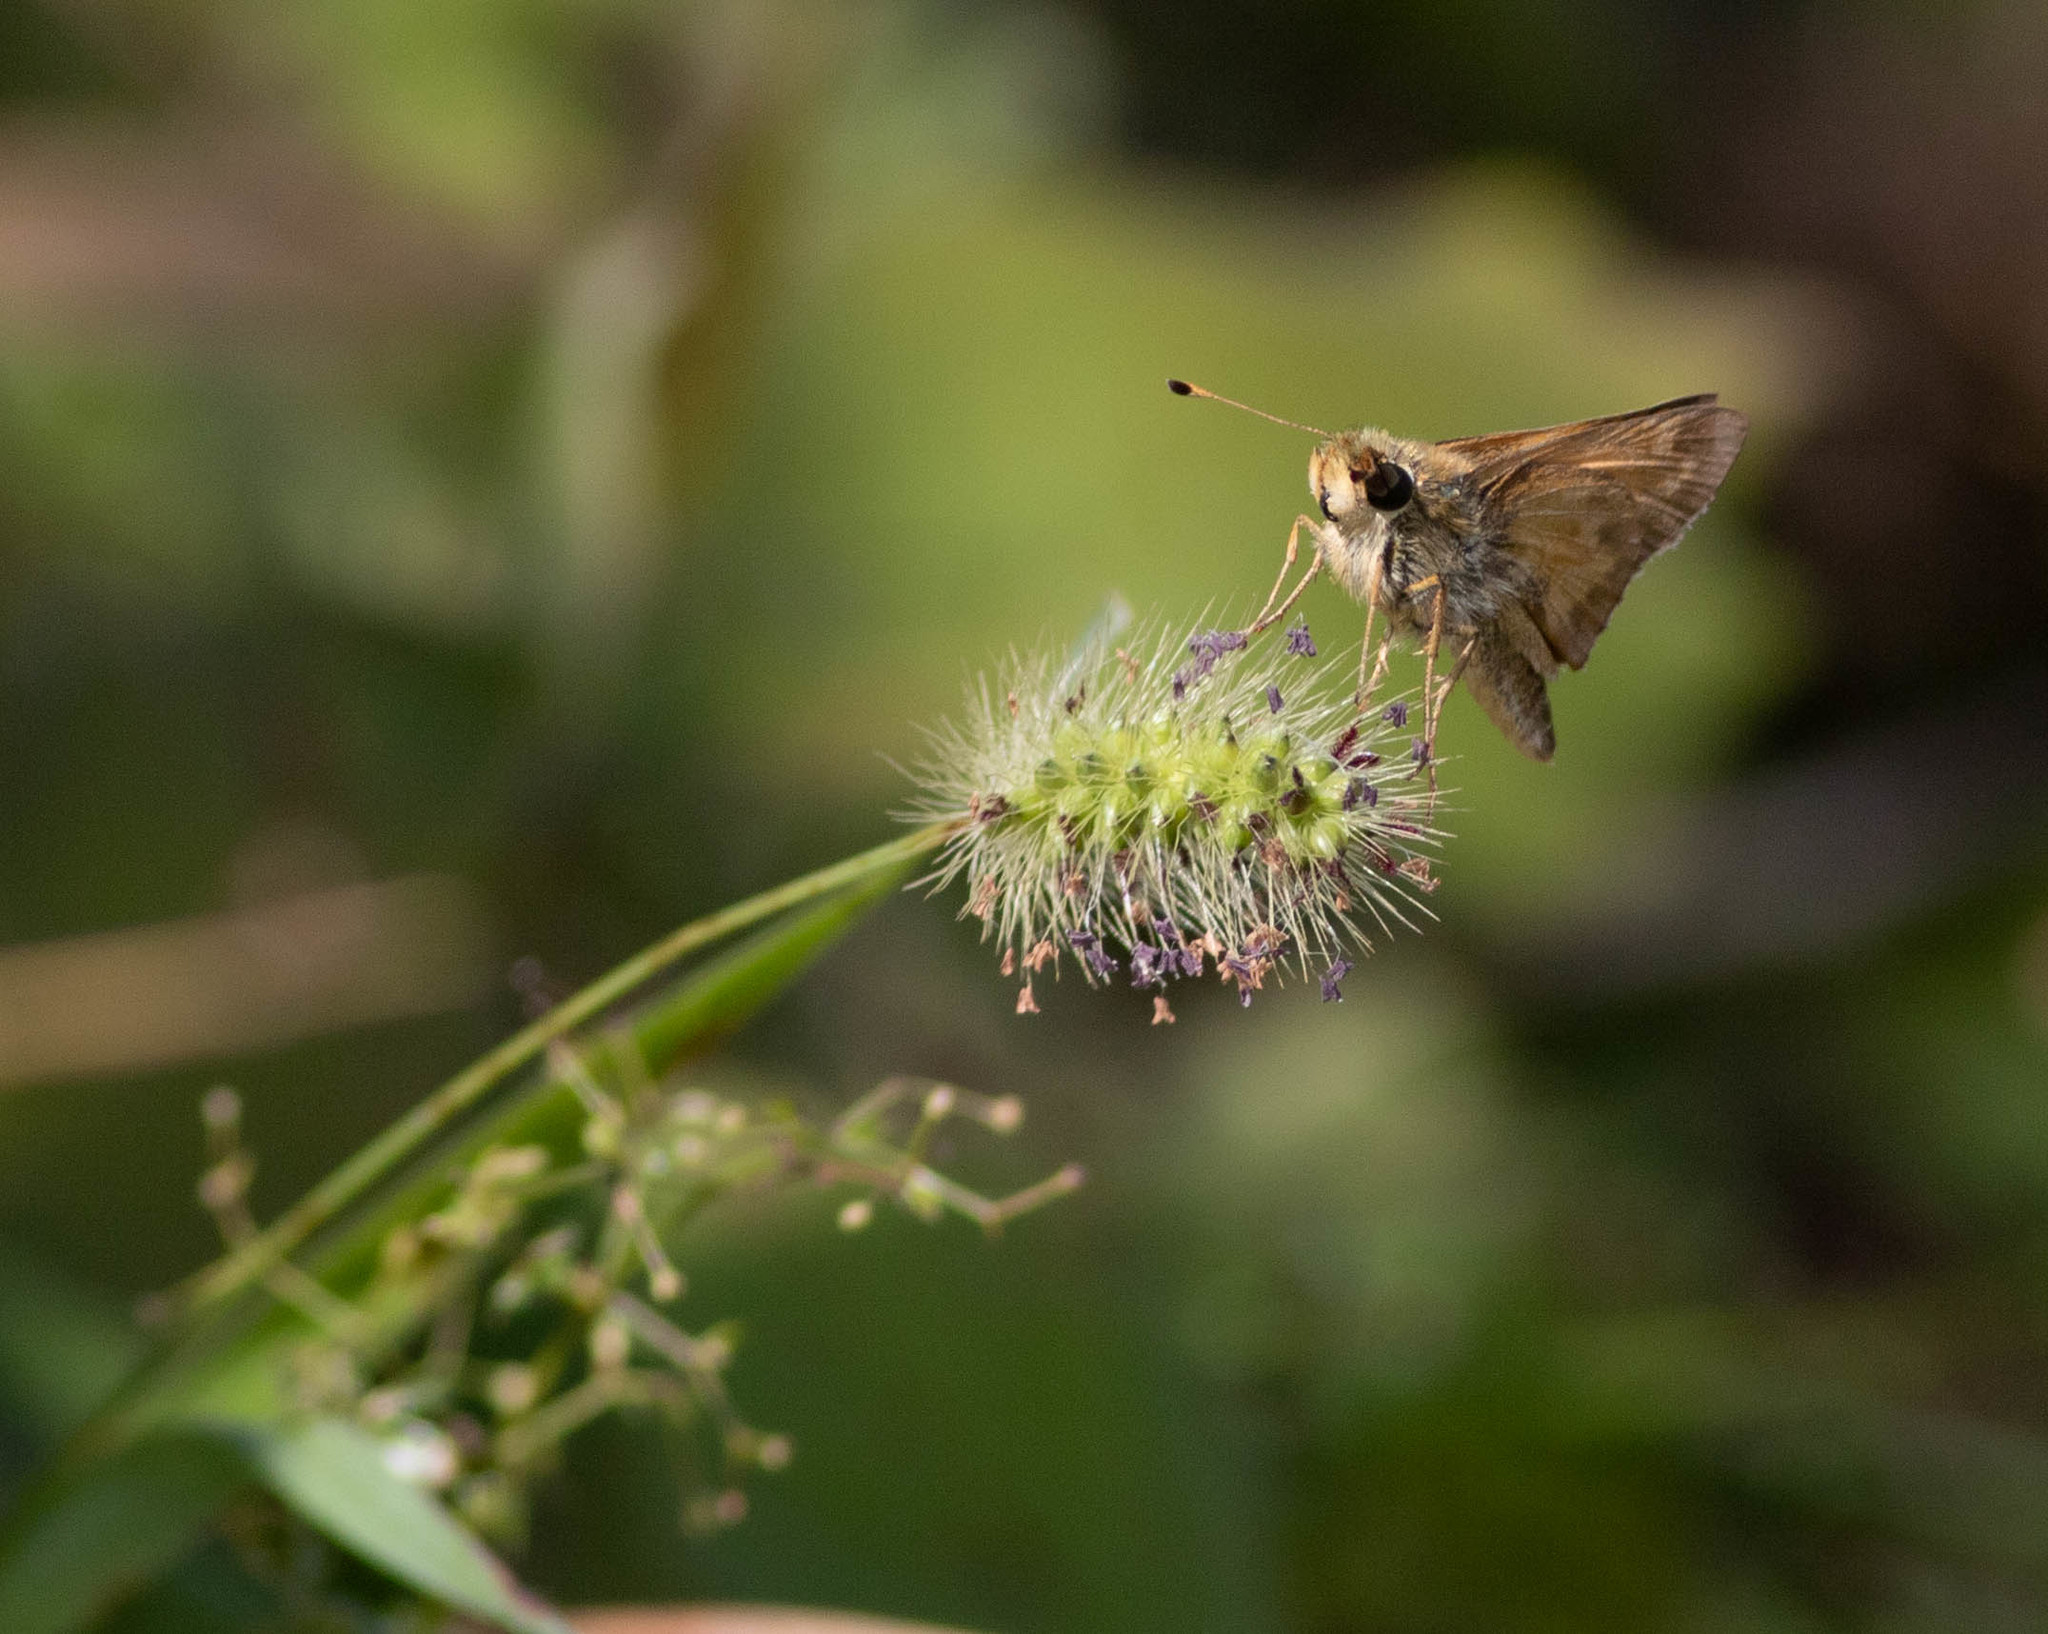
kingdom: Animalia
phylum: Arthropoda
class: Insecta
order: Lepidoptera
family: Hesperiidae
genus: Atalopedes
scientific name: Atalopedes
